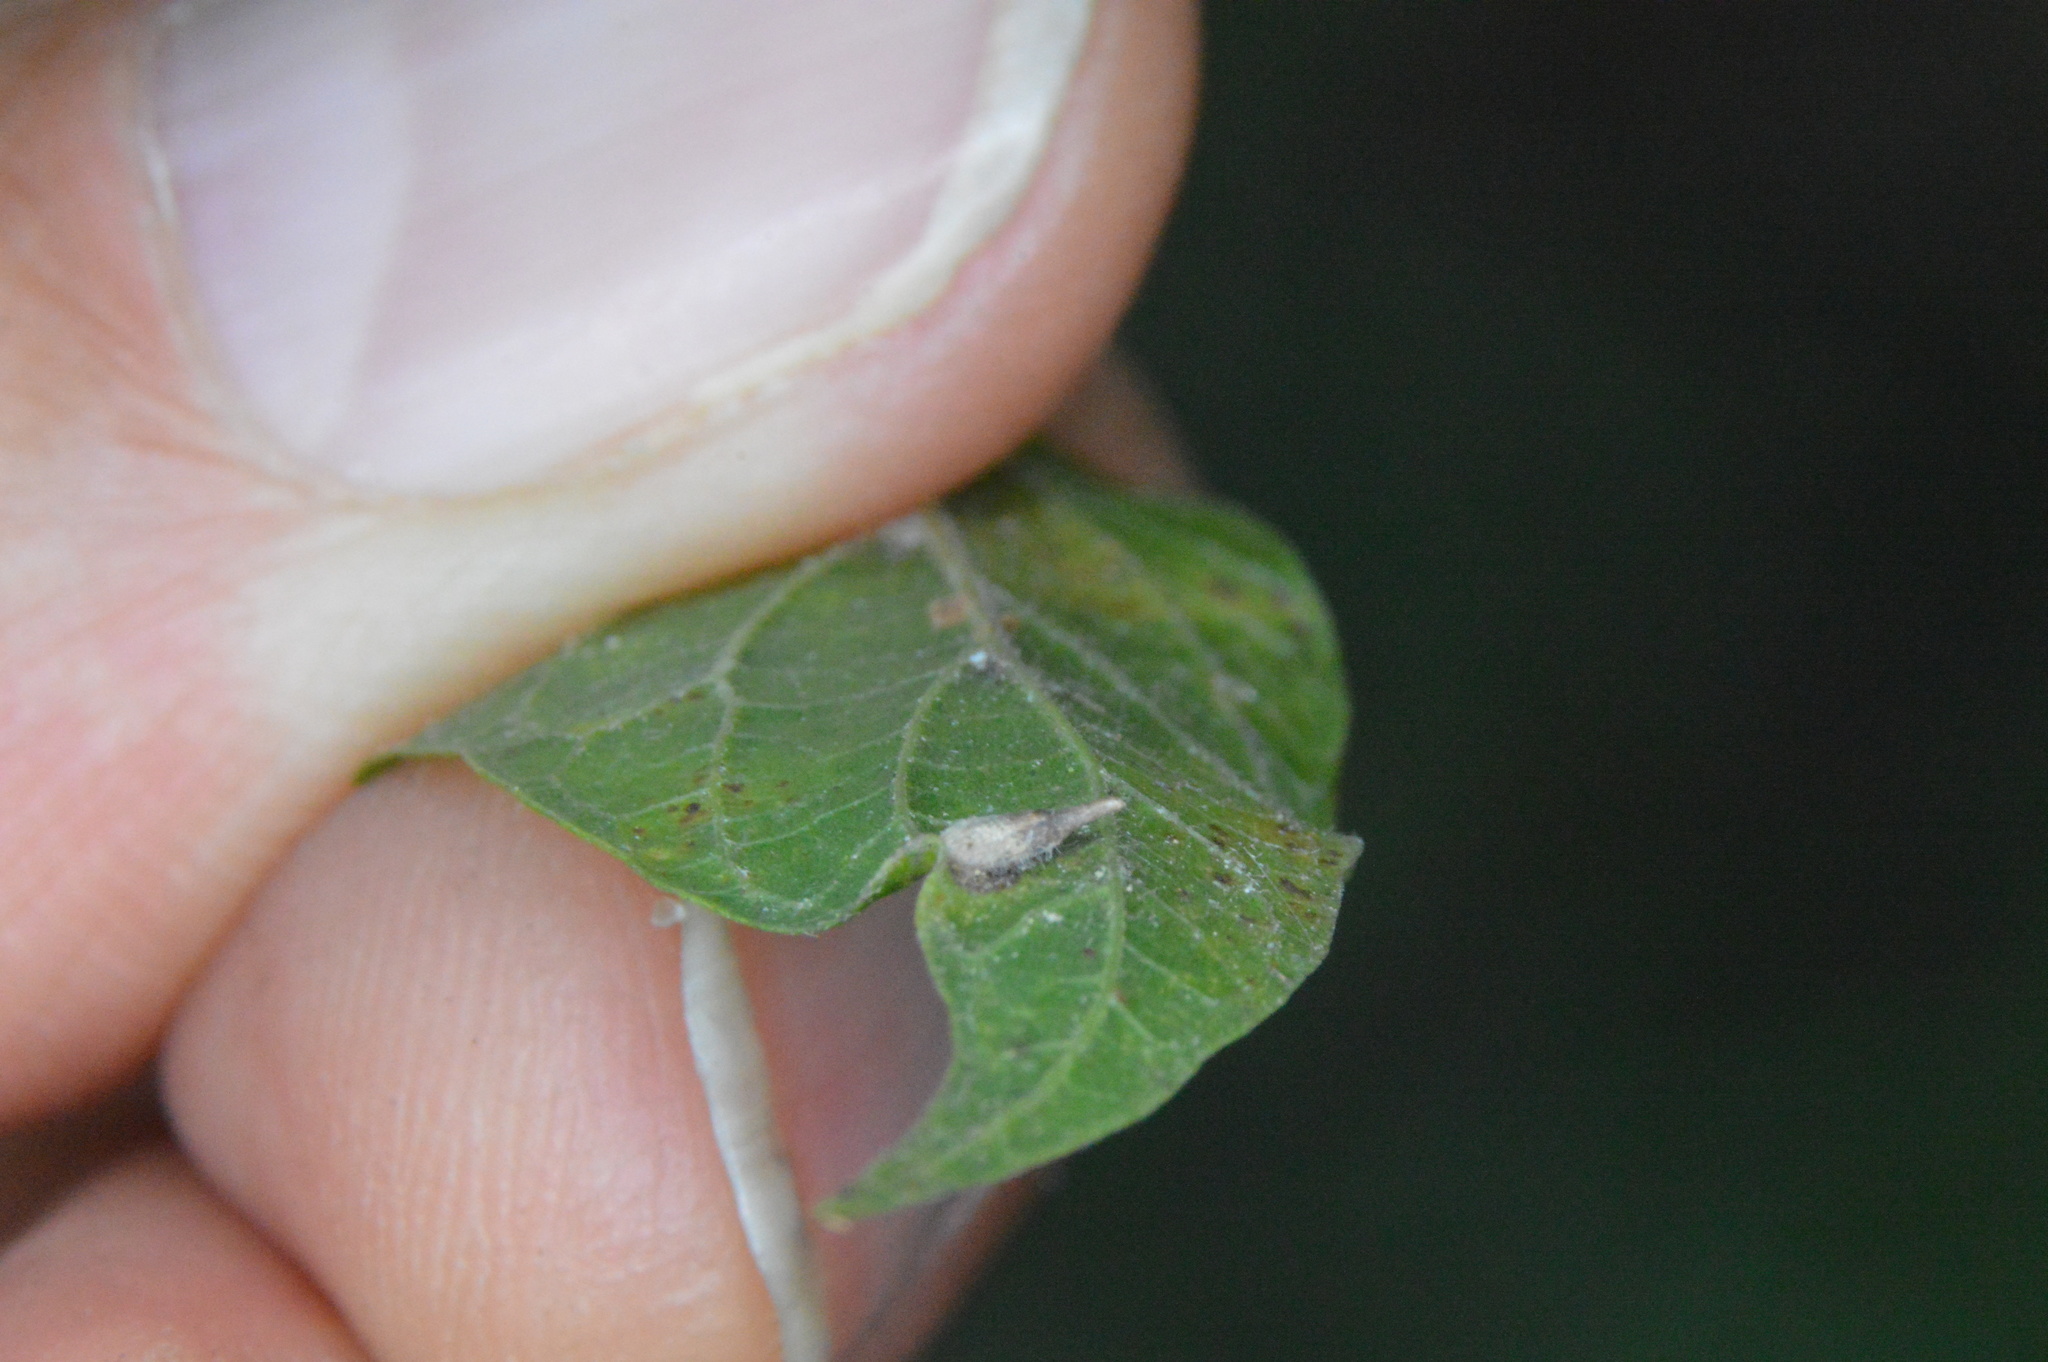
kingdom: Animalia
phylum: Arthropoda
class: Insecta
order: Diptera
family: Cecidomyiidae
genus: Celticecis
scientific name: Celticecis supina
